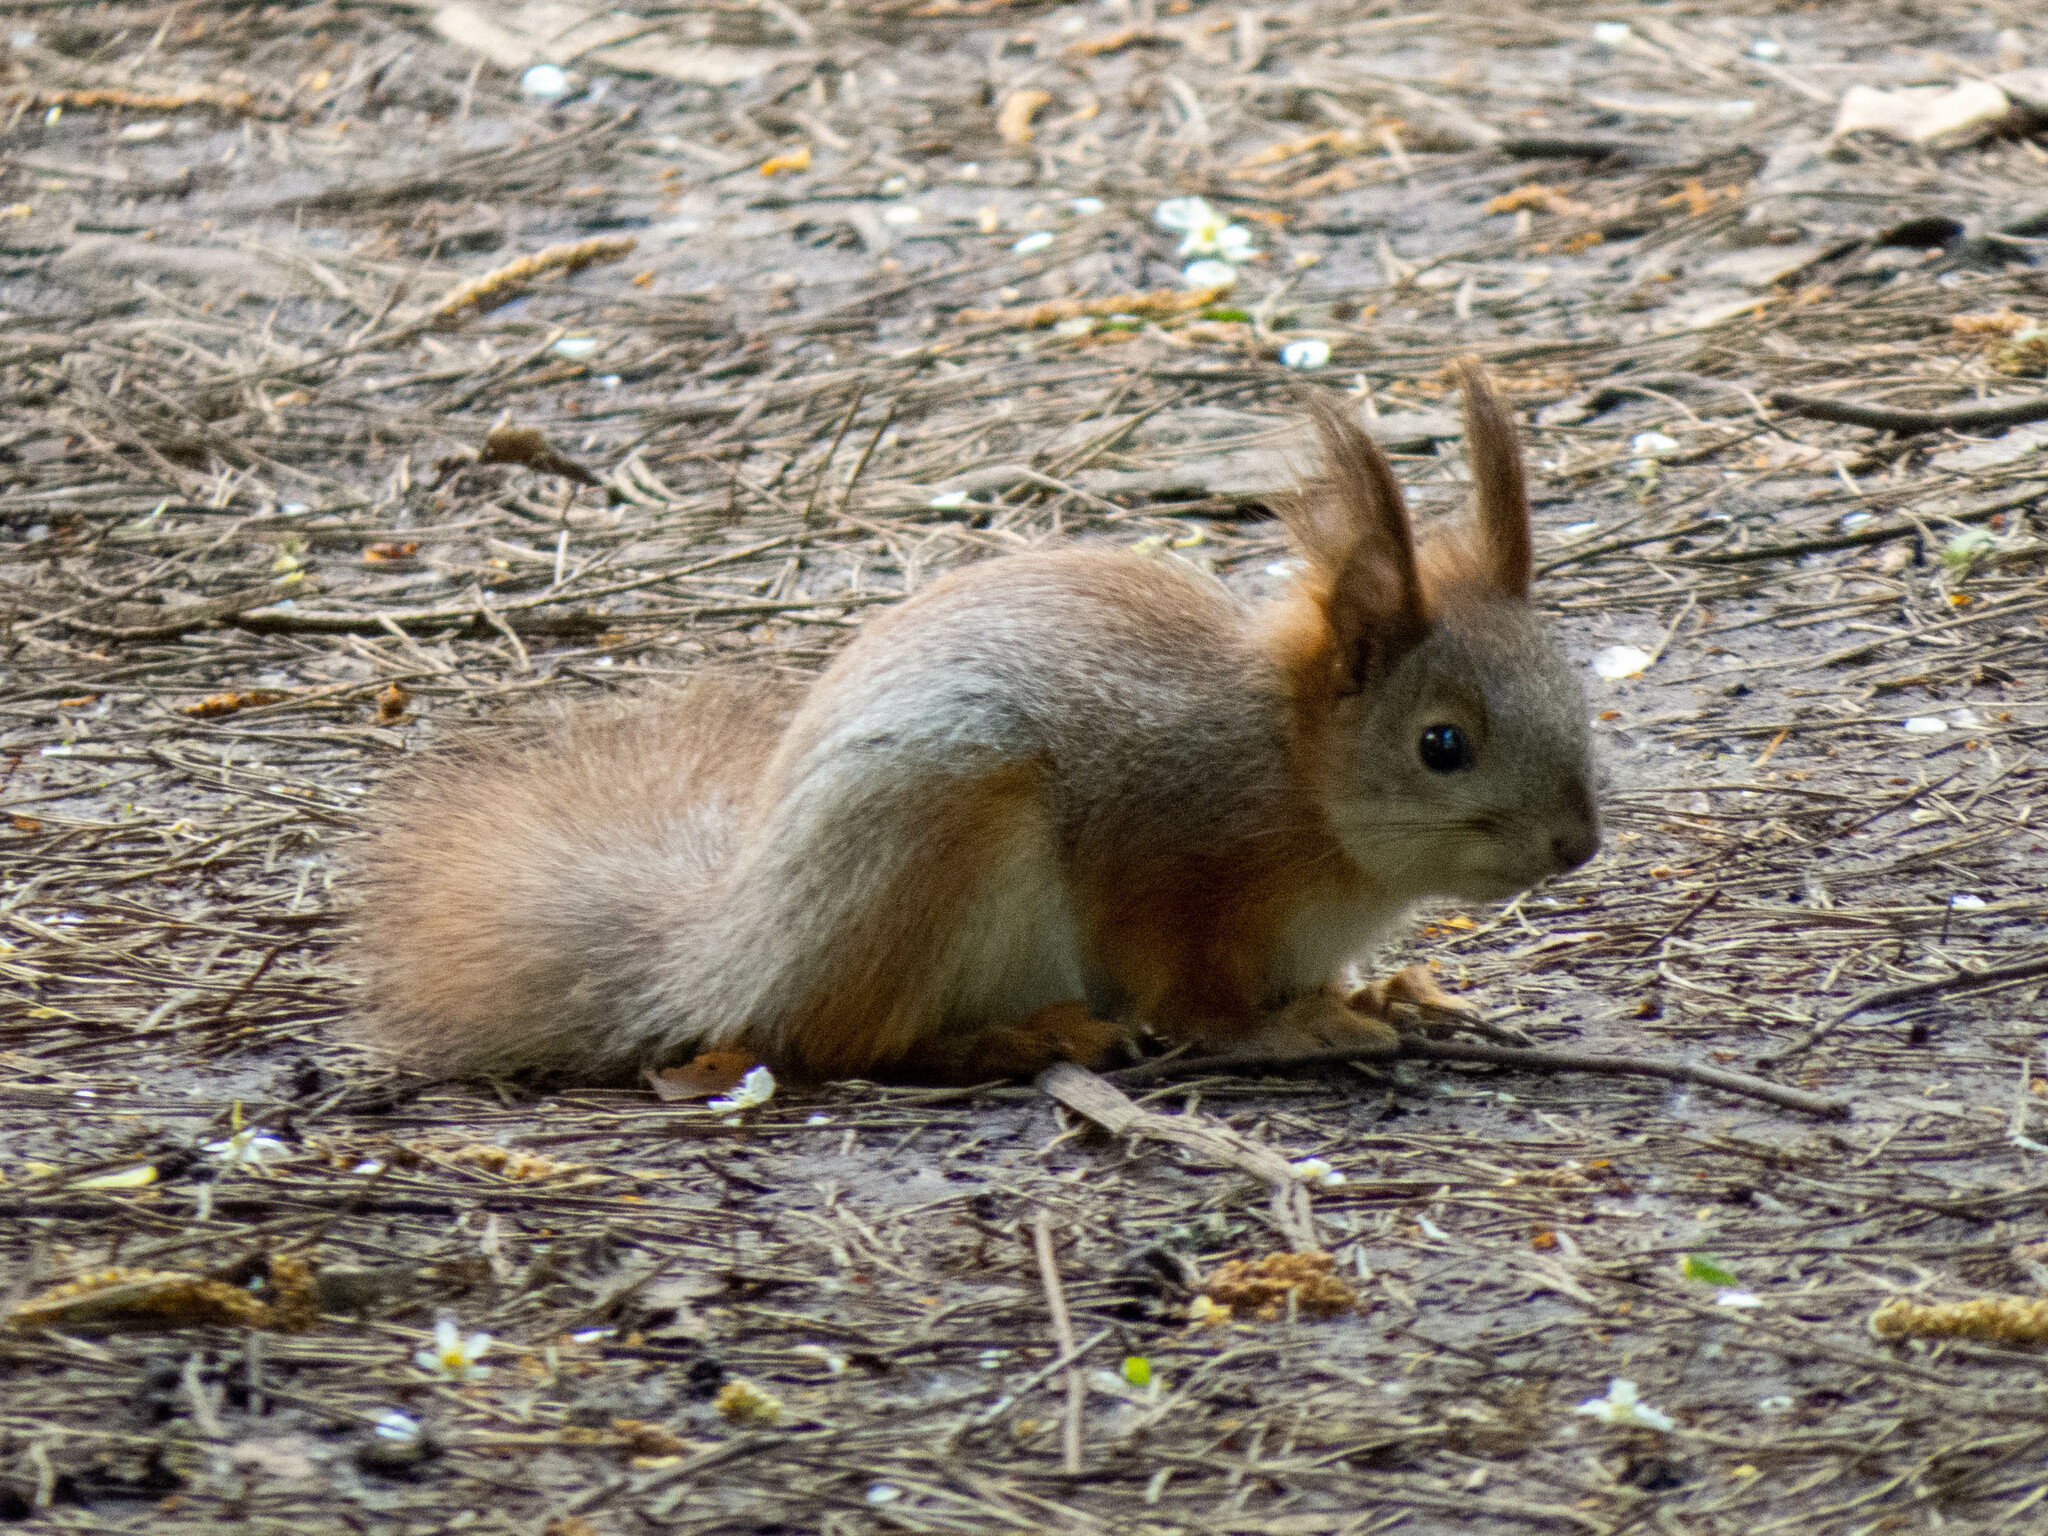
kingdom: Animalia
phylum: Chordata
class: Mammalia
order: Rodentia
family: Sciuridae
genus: Sciurus
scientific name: Sciurus vulgaris
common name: Eurasian red squirrel
